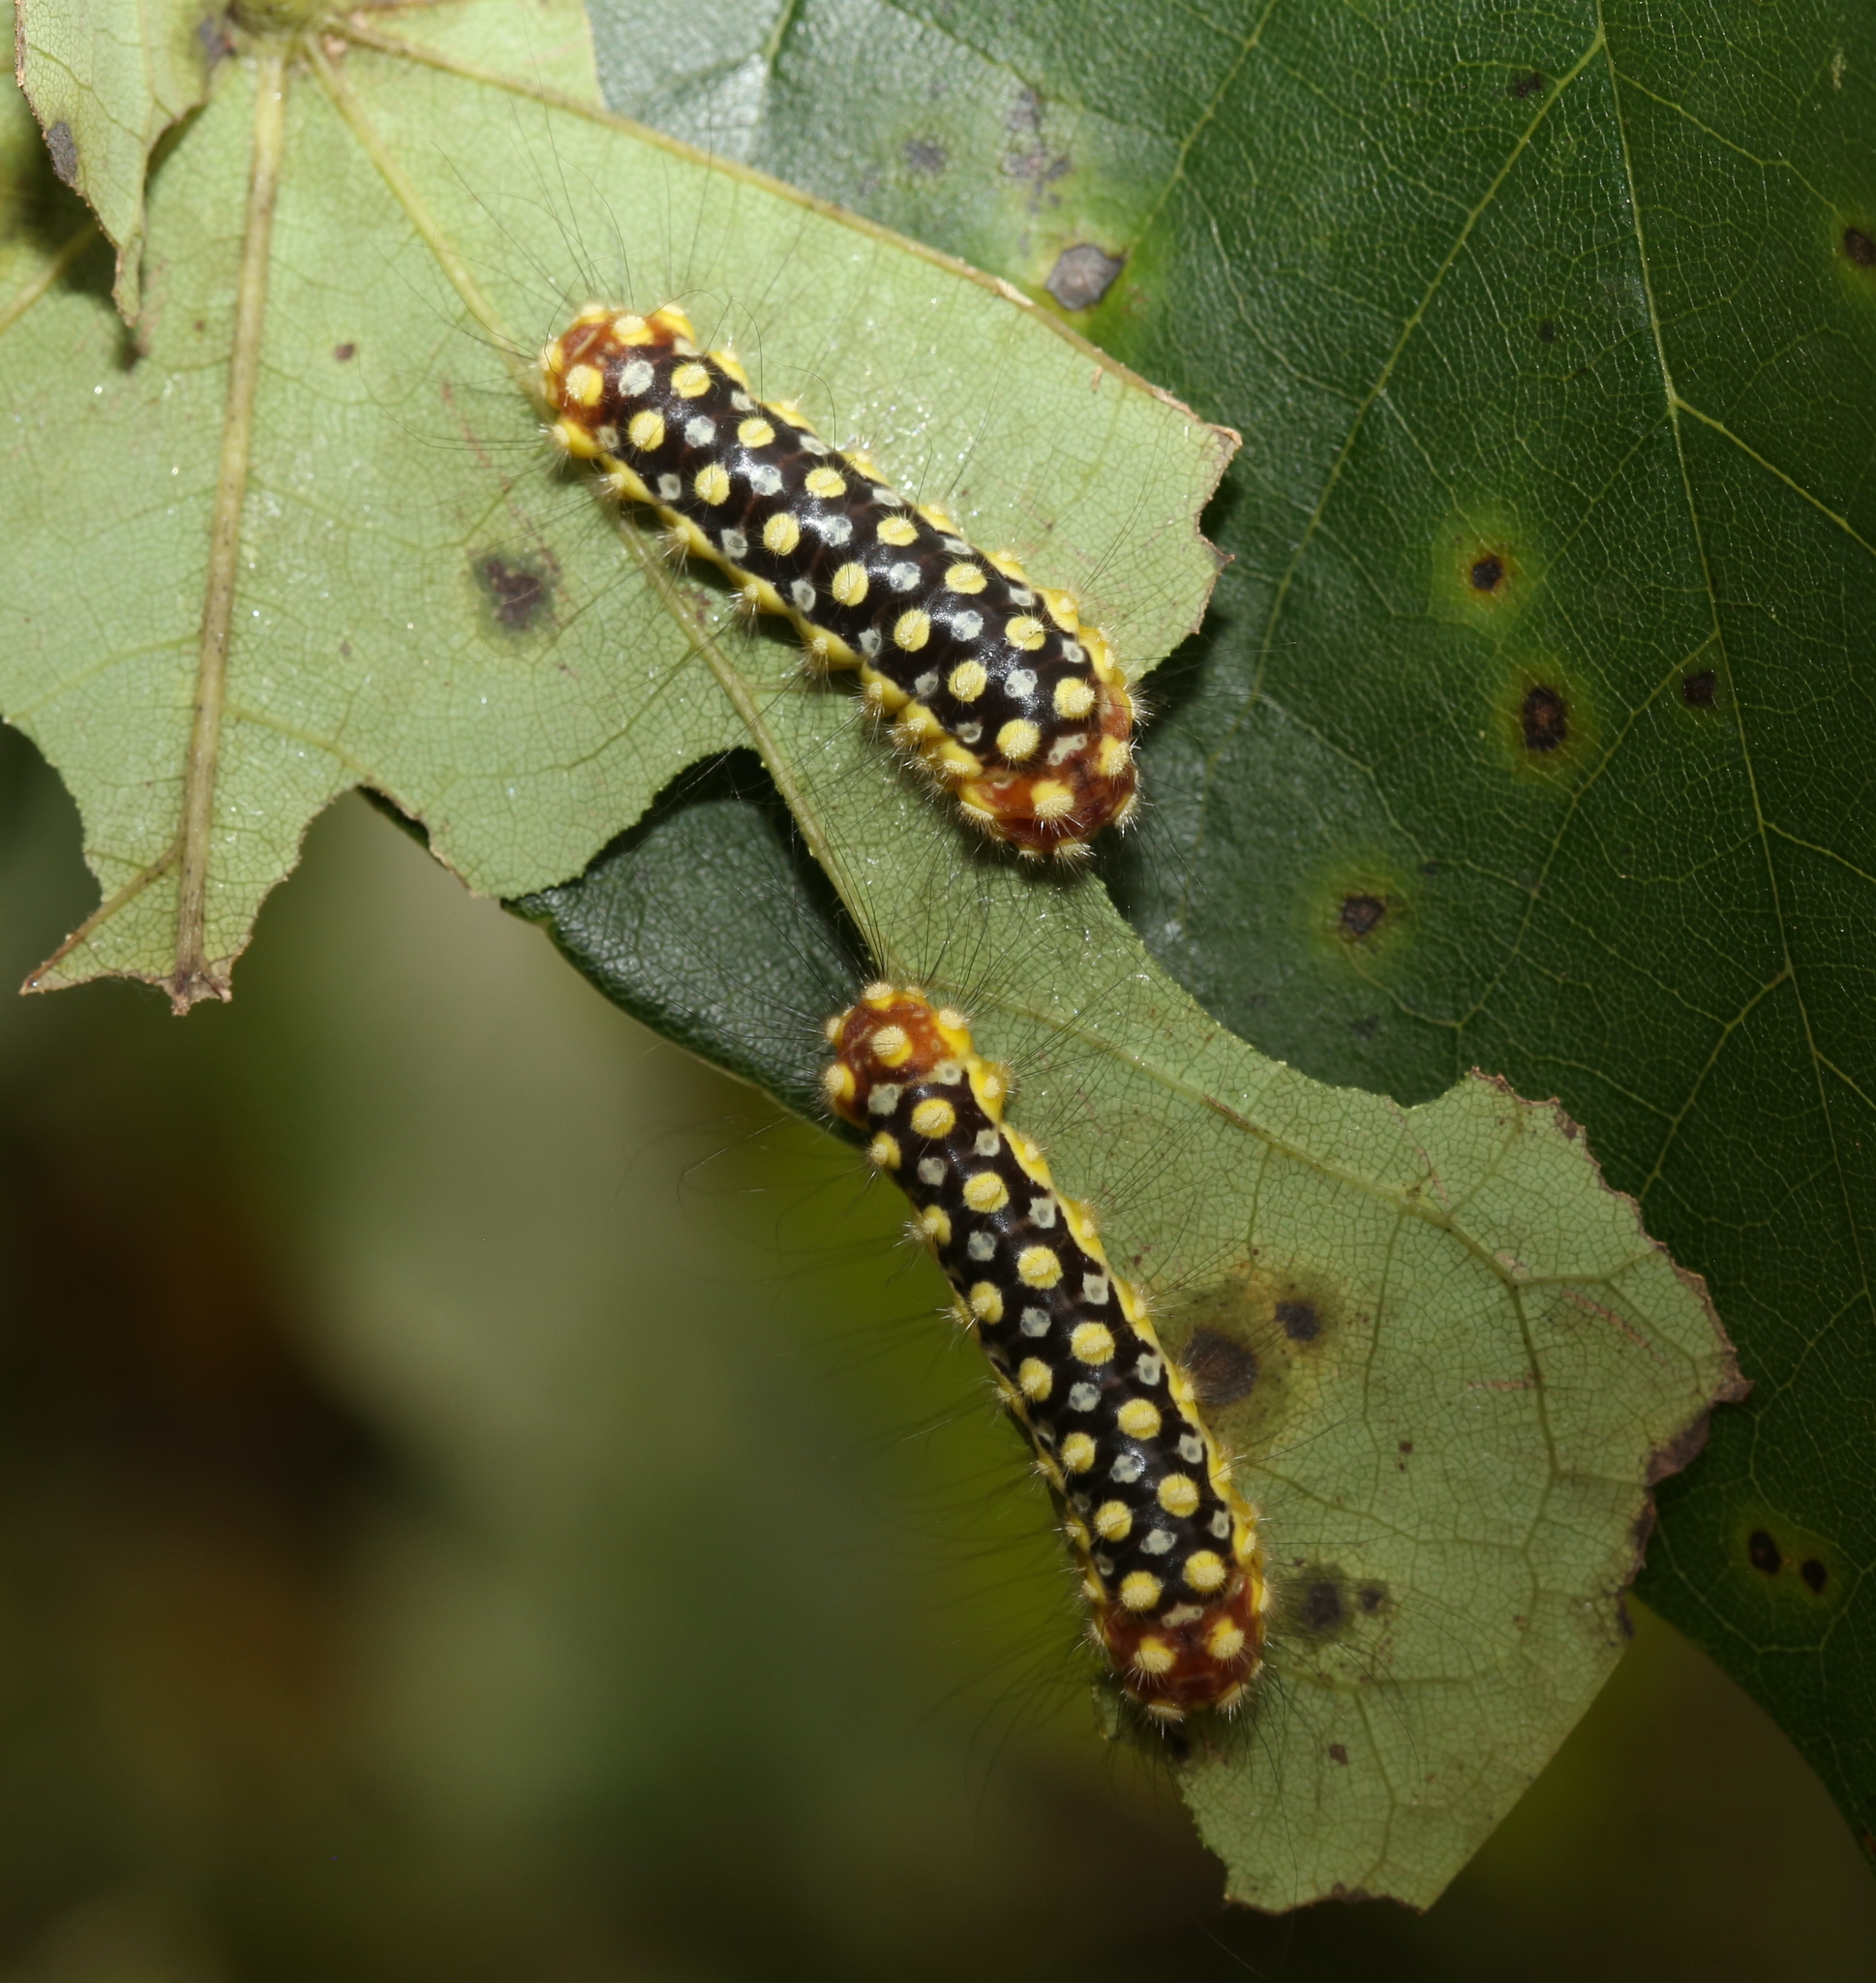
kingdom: Animalia
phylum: Arthropoda
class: Insecta
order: Lepidoptera
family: Megalopygidae
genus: Norape
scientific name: Norape cretata
